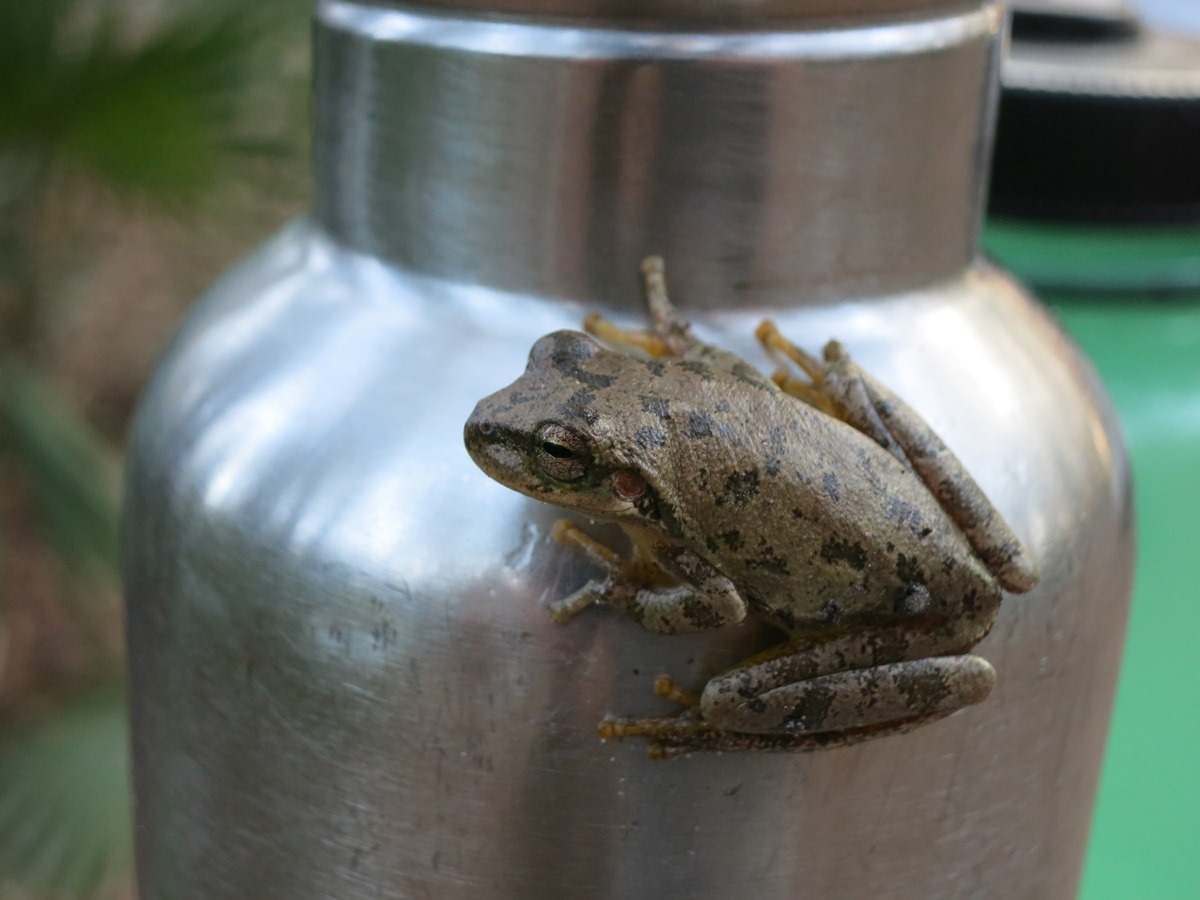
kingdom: Animalia
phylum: Chordata
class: Amphibia
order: Anura
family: Hylidae
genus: Dryophytes
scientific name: Dryophytes squirellus
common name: Squirrel treefrog
